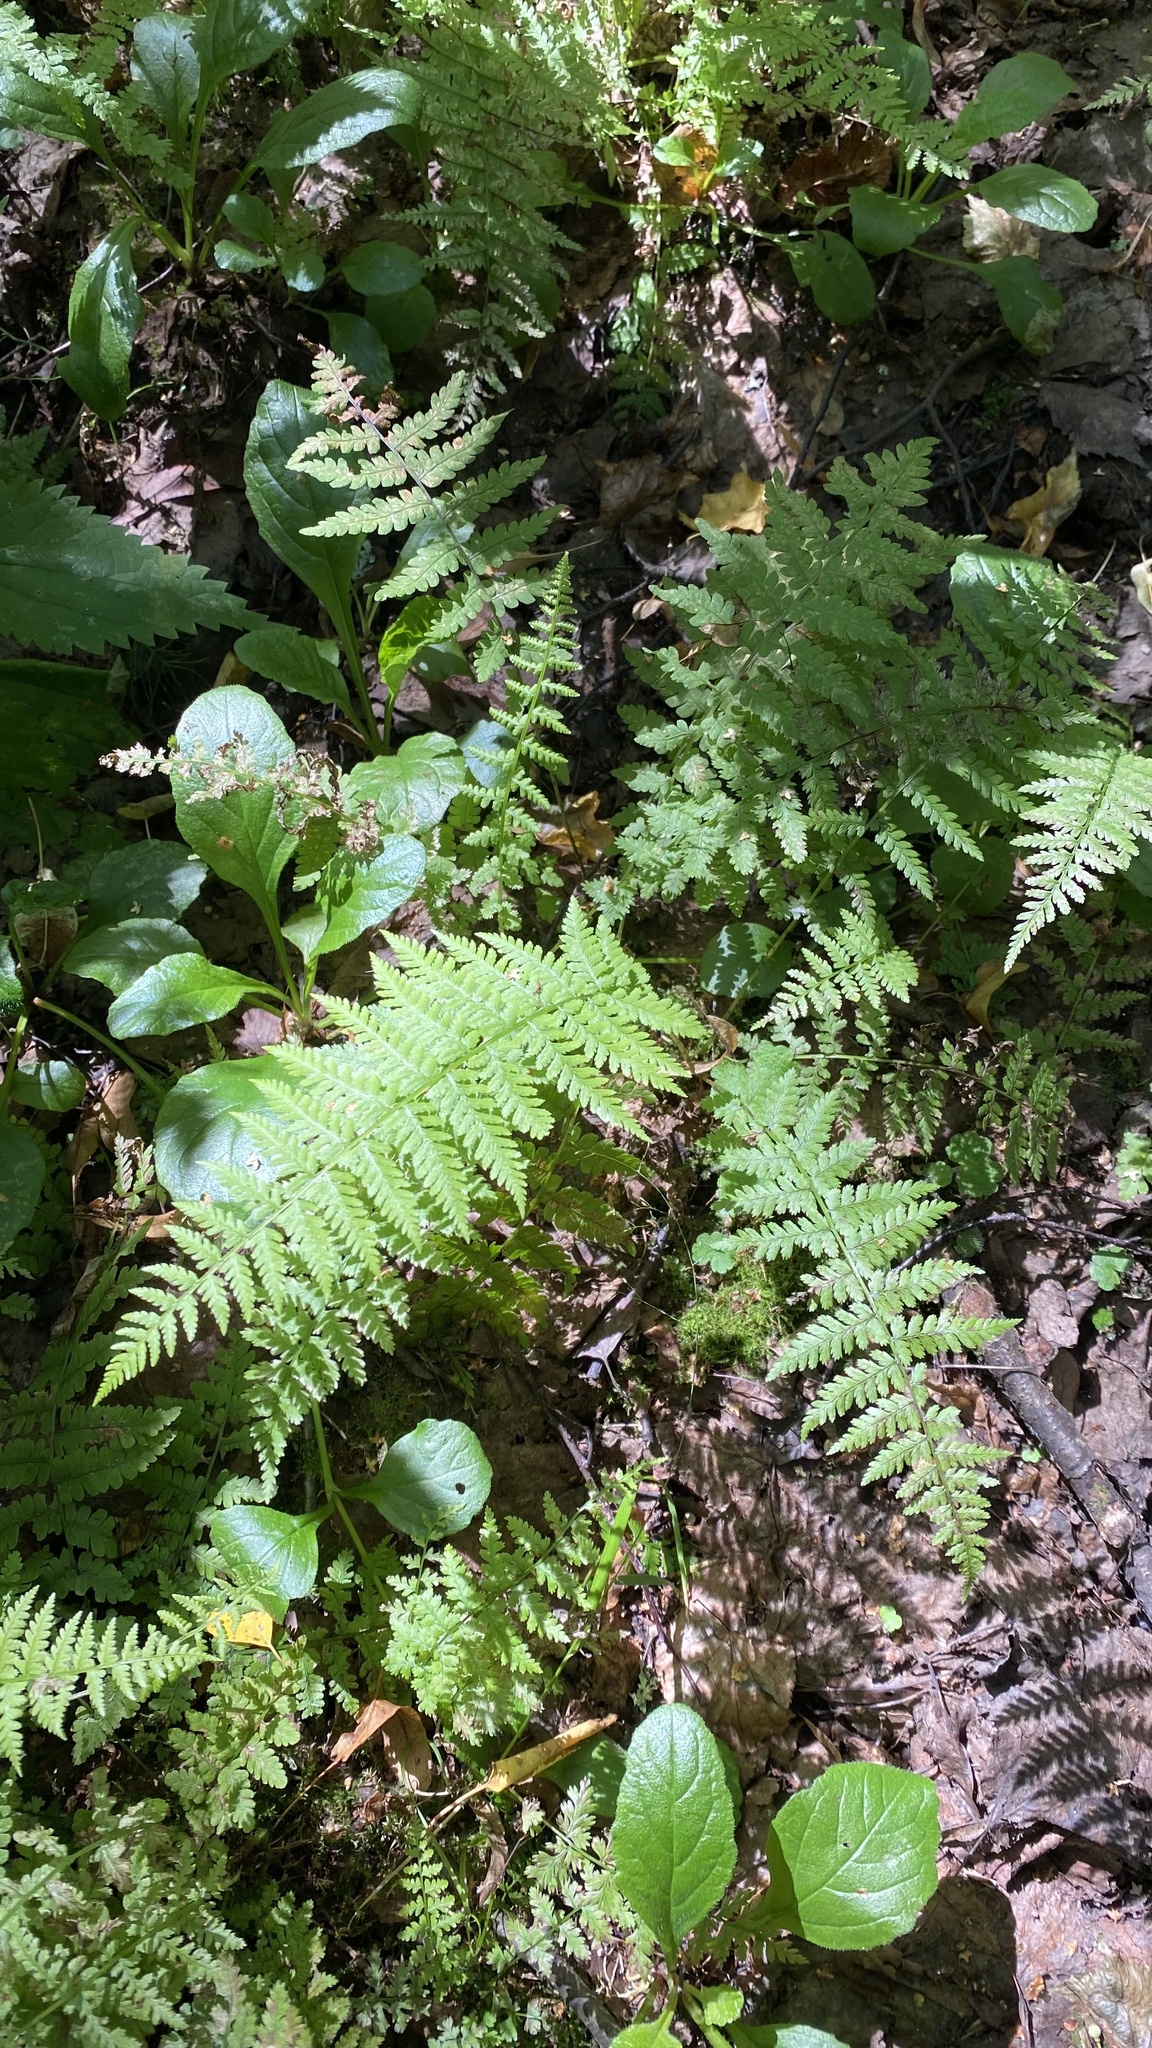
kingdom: Plantae
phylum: Tracheophyta
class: Polypodiopsida
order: Polypodiales
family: Dryopteridaceae
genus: Dryopteris
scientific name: Dryopteris carthusiana
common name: Narrow buckler-fern
